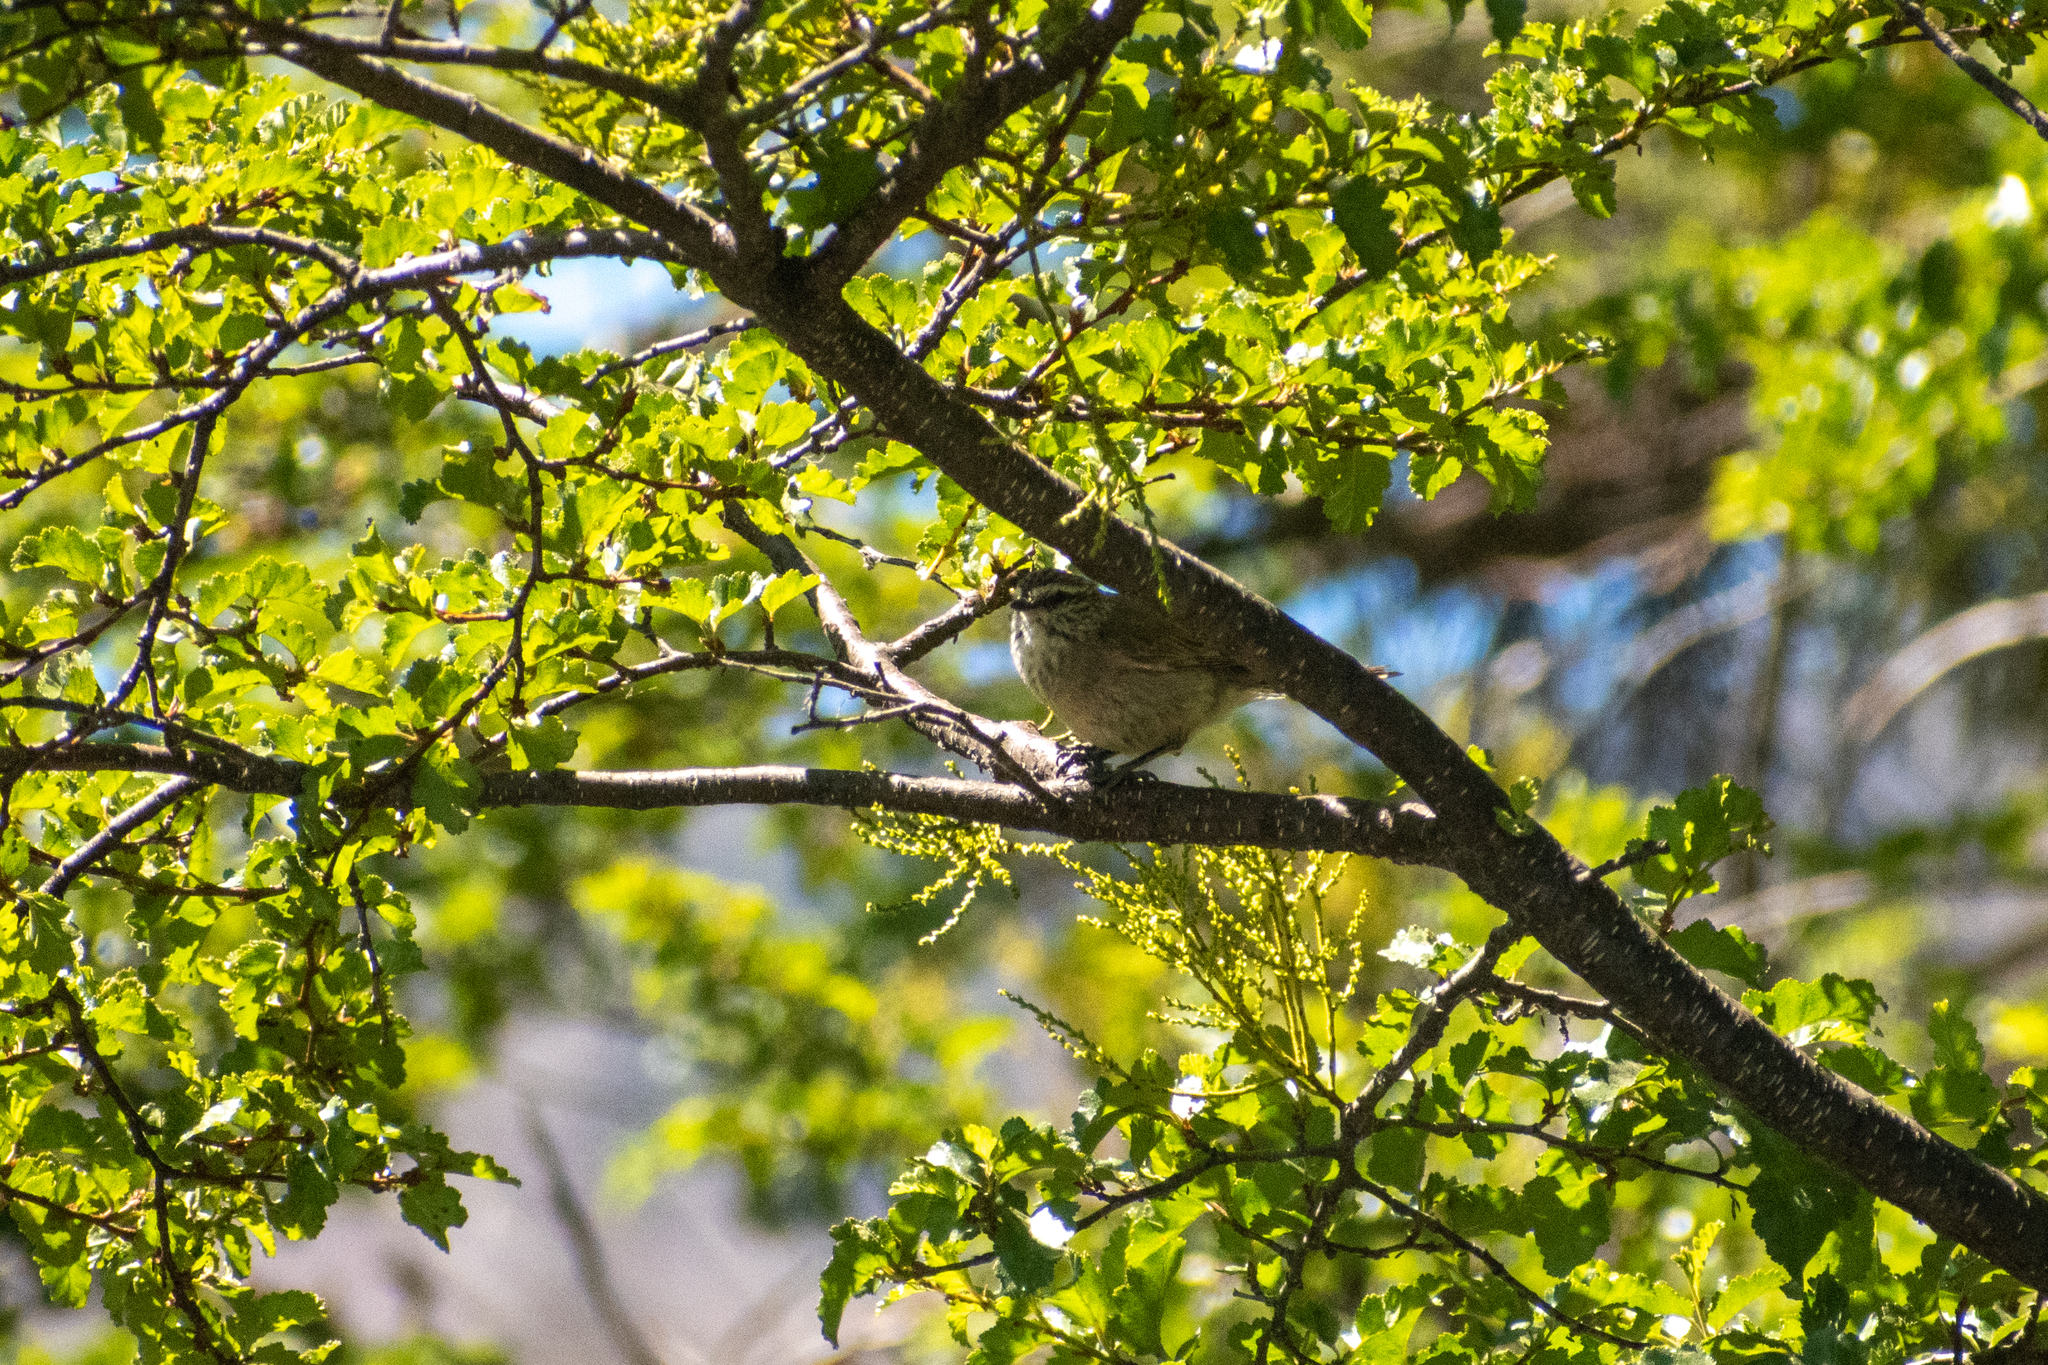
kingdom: Animalia
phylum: Chordata
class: Aves
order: Passeriformes
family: Furnariidae
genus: Leptasthenura
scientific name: Leptasthenura aegithaloides
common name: Plain-mantled tit-spinetail
